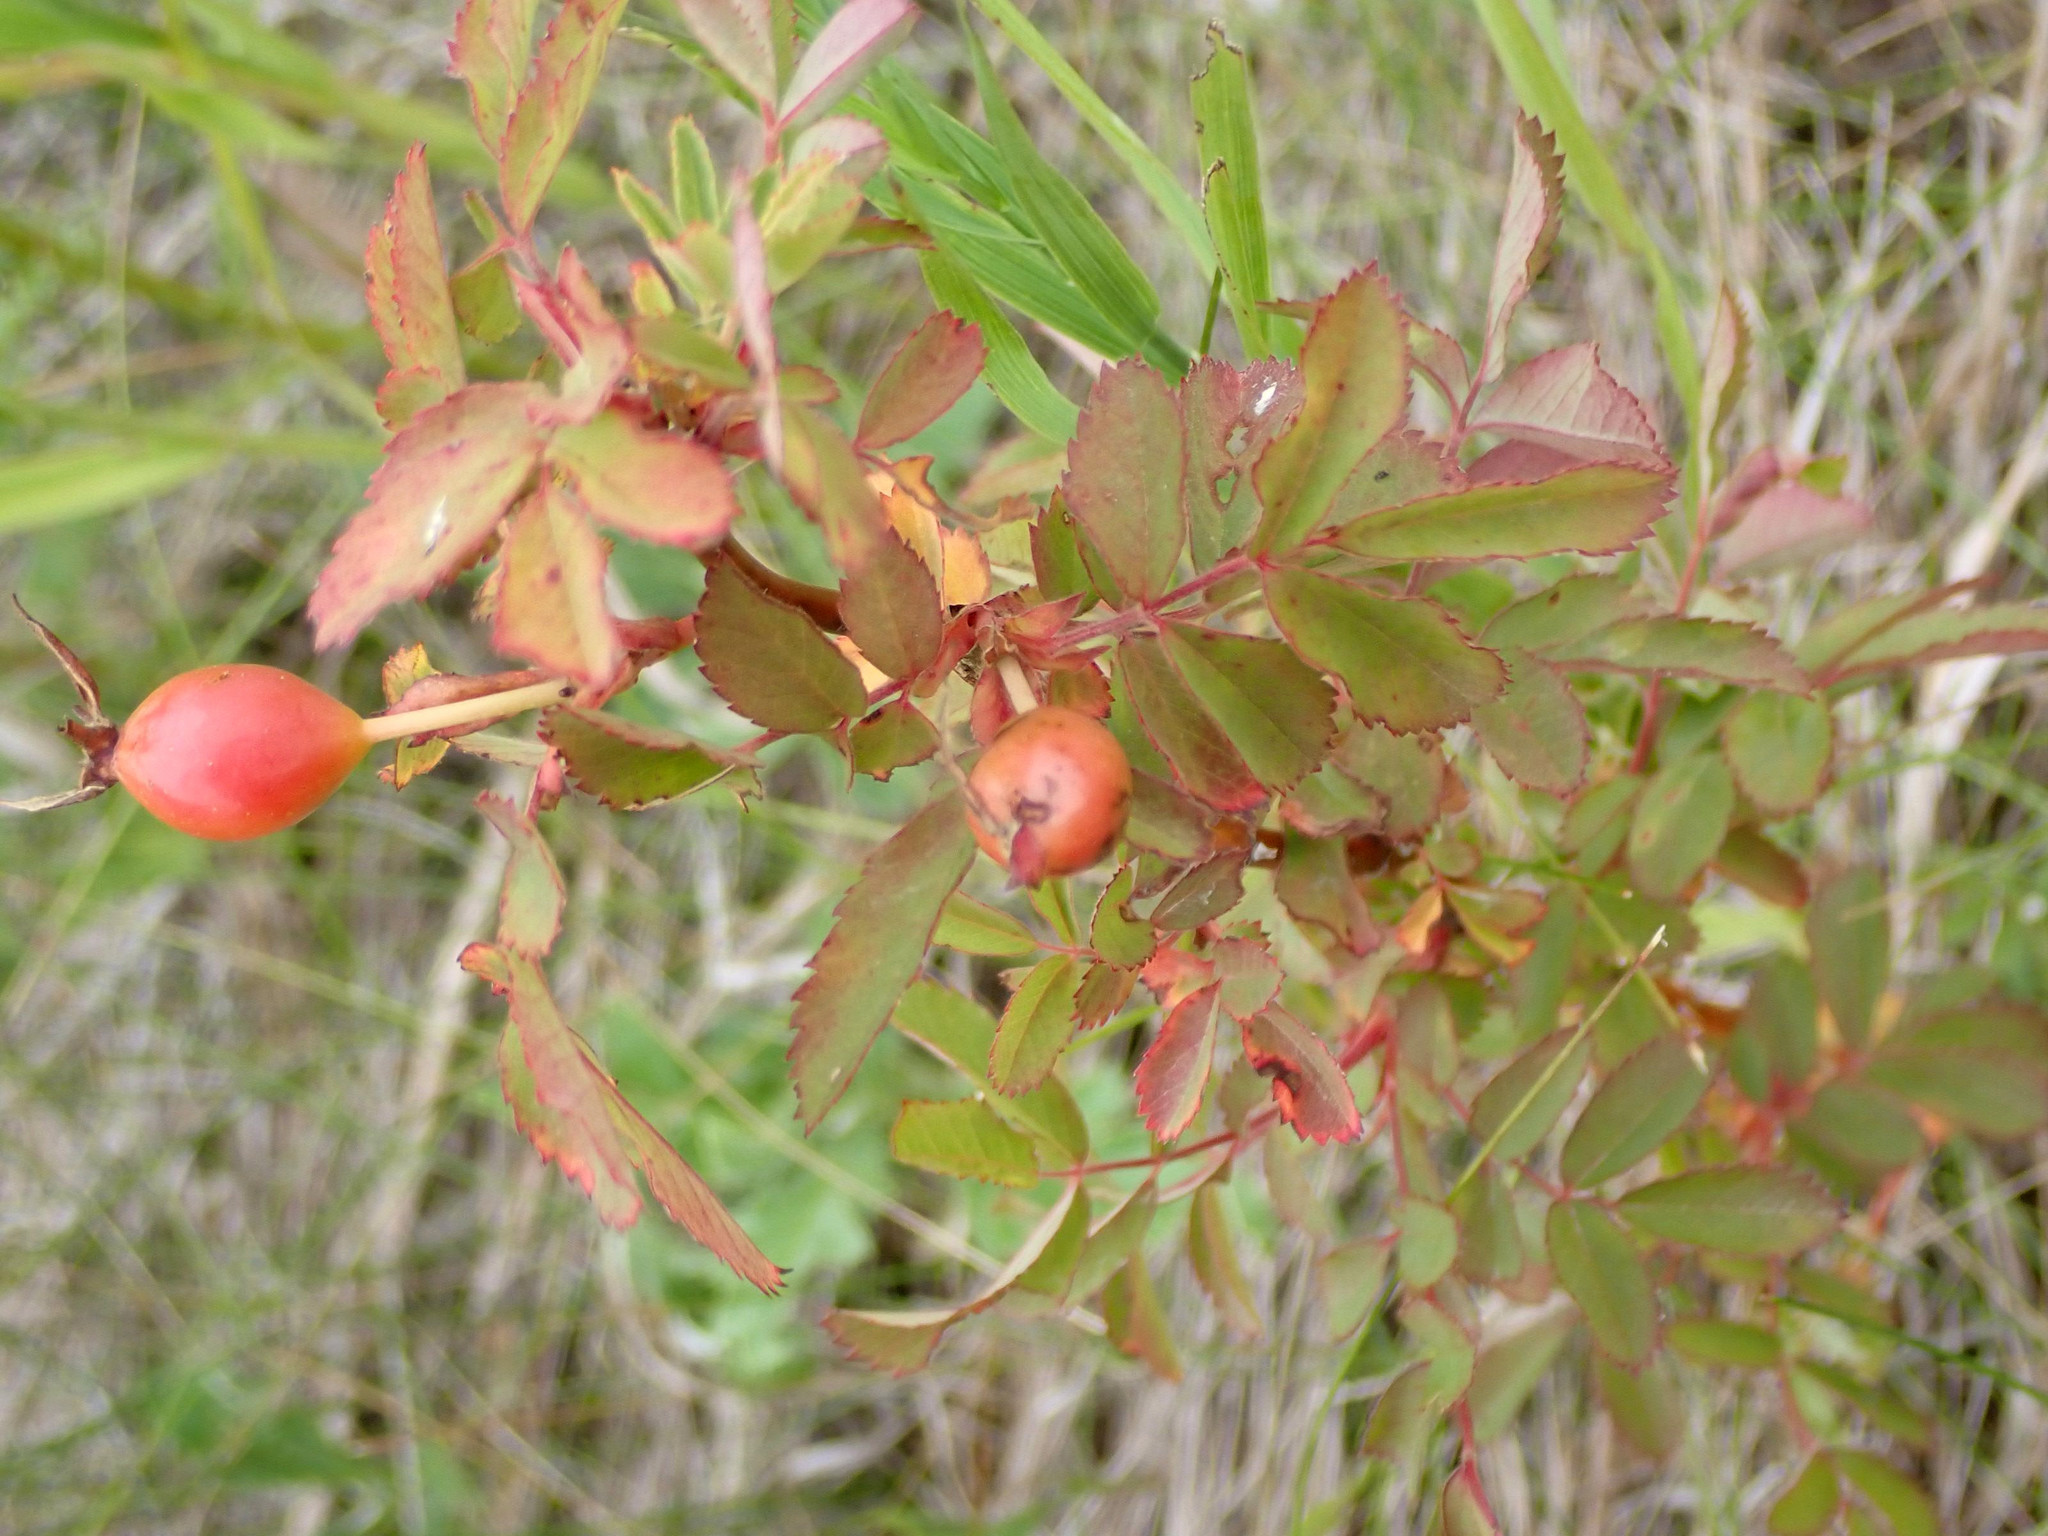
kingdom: Plantae
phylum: Tracheophyta
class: Magnoliopsida
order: Rosales
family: Rosaceae
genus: Rosa
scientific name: Rosa acicularis
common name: Prickly rose
